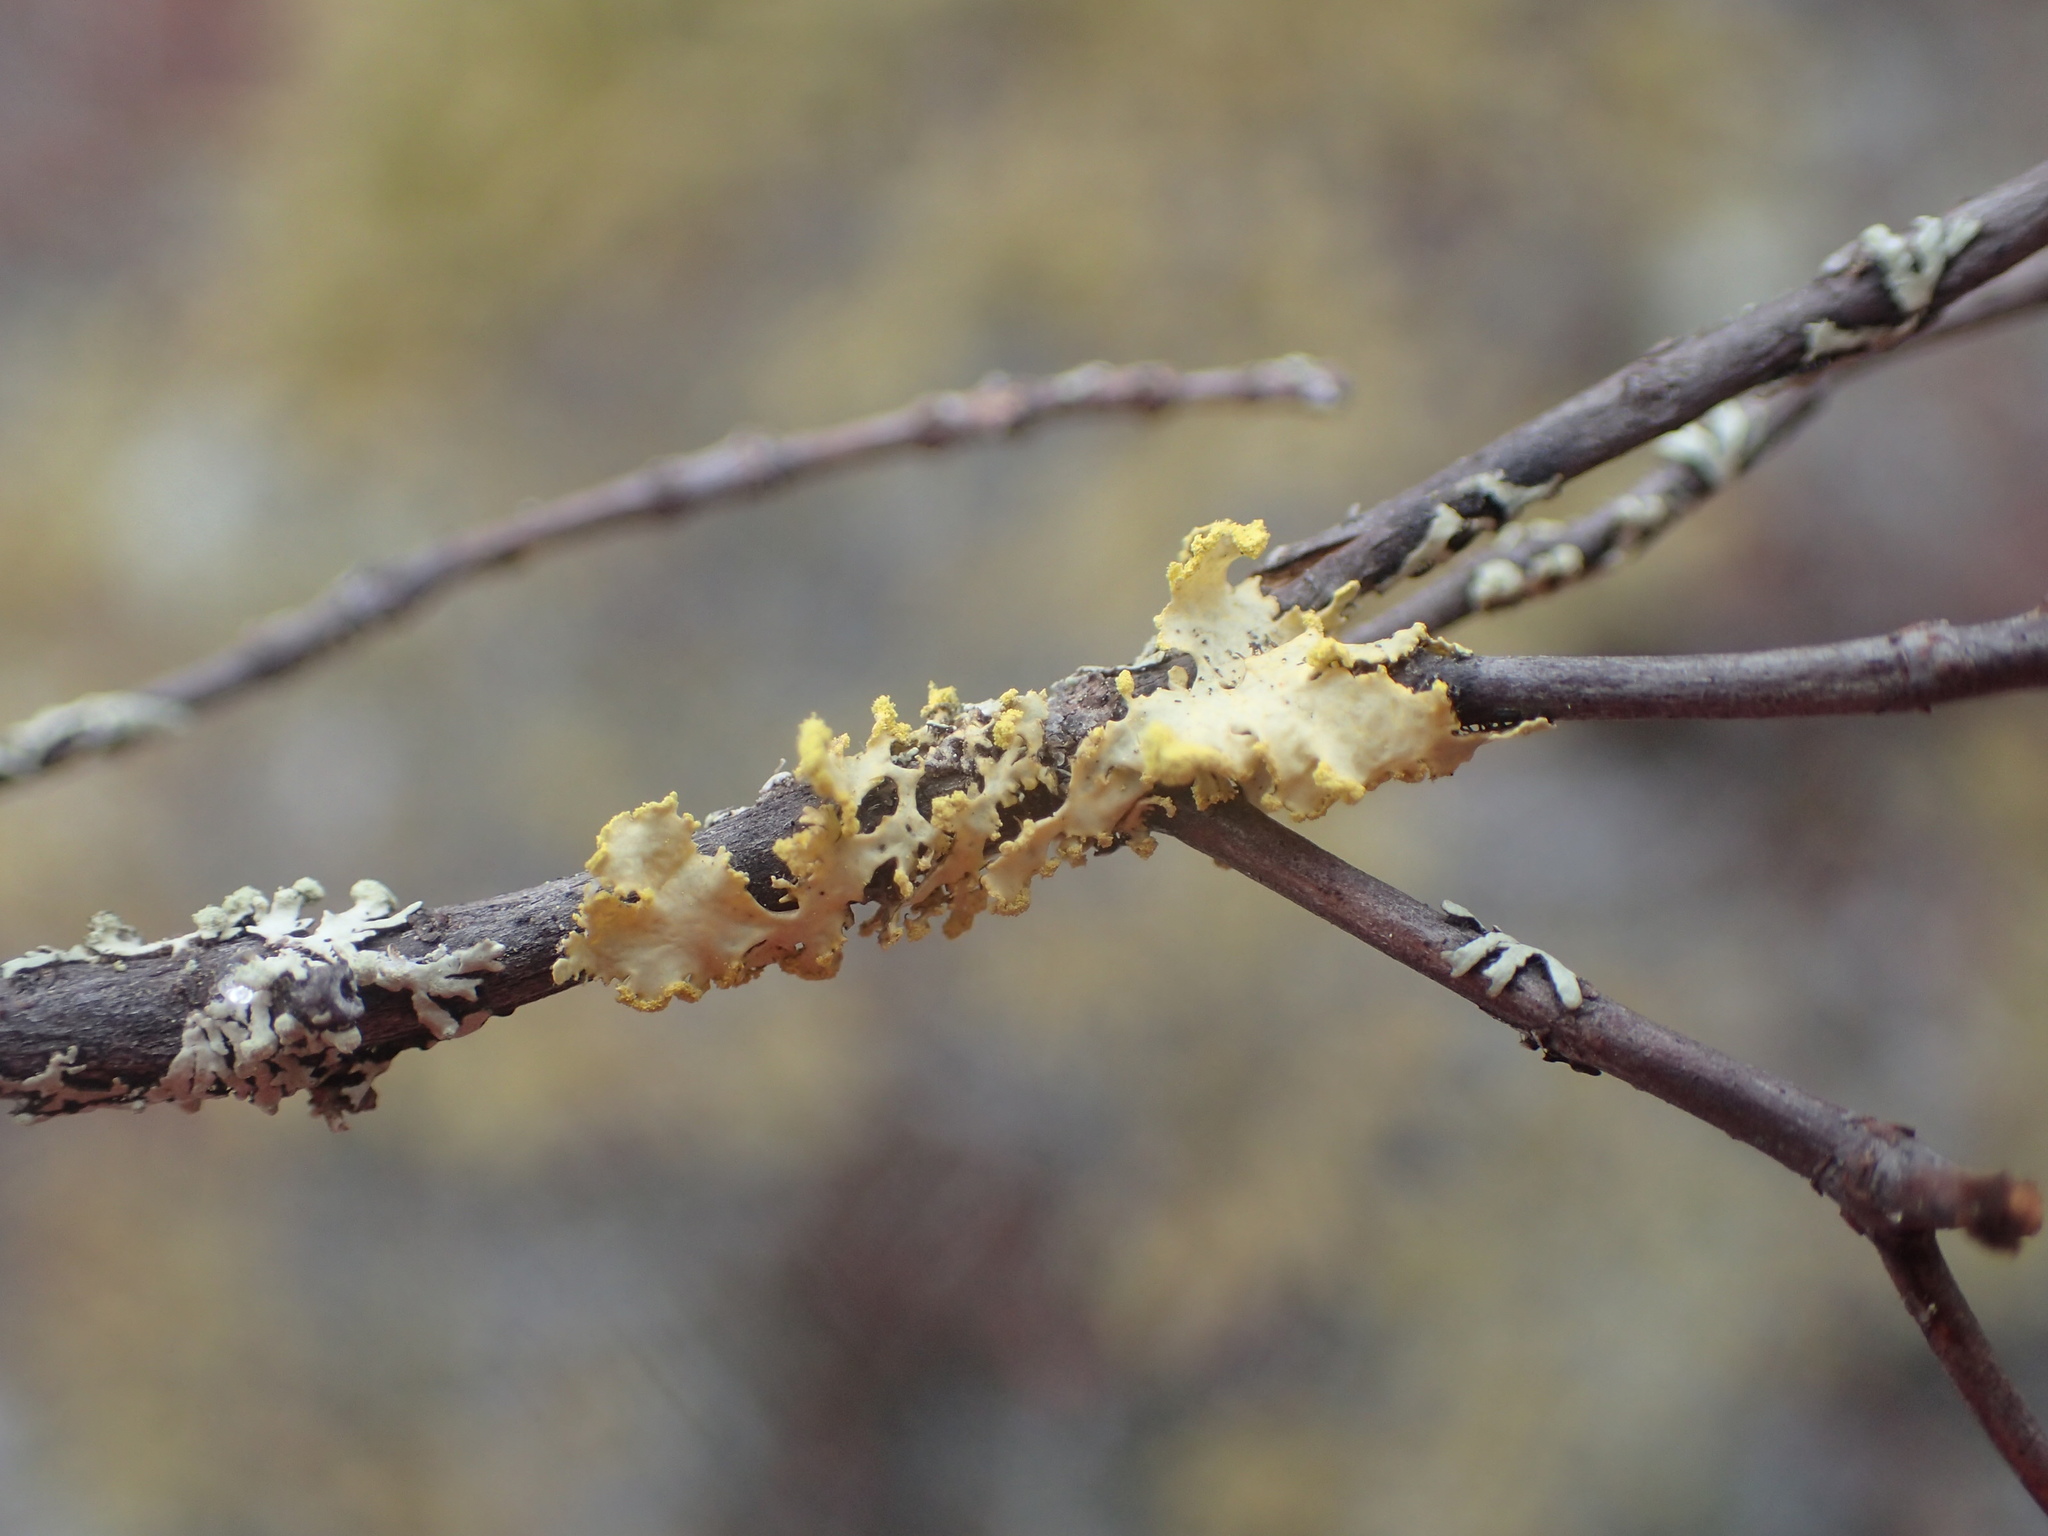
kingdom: Fungi
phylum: Ascomycota
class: Lecanoromycetes
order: Lecanorales
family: Parmeliaceae
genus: Vulpicida
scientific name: Vulpicida pinastri
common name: Powdered sunshine lichen
